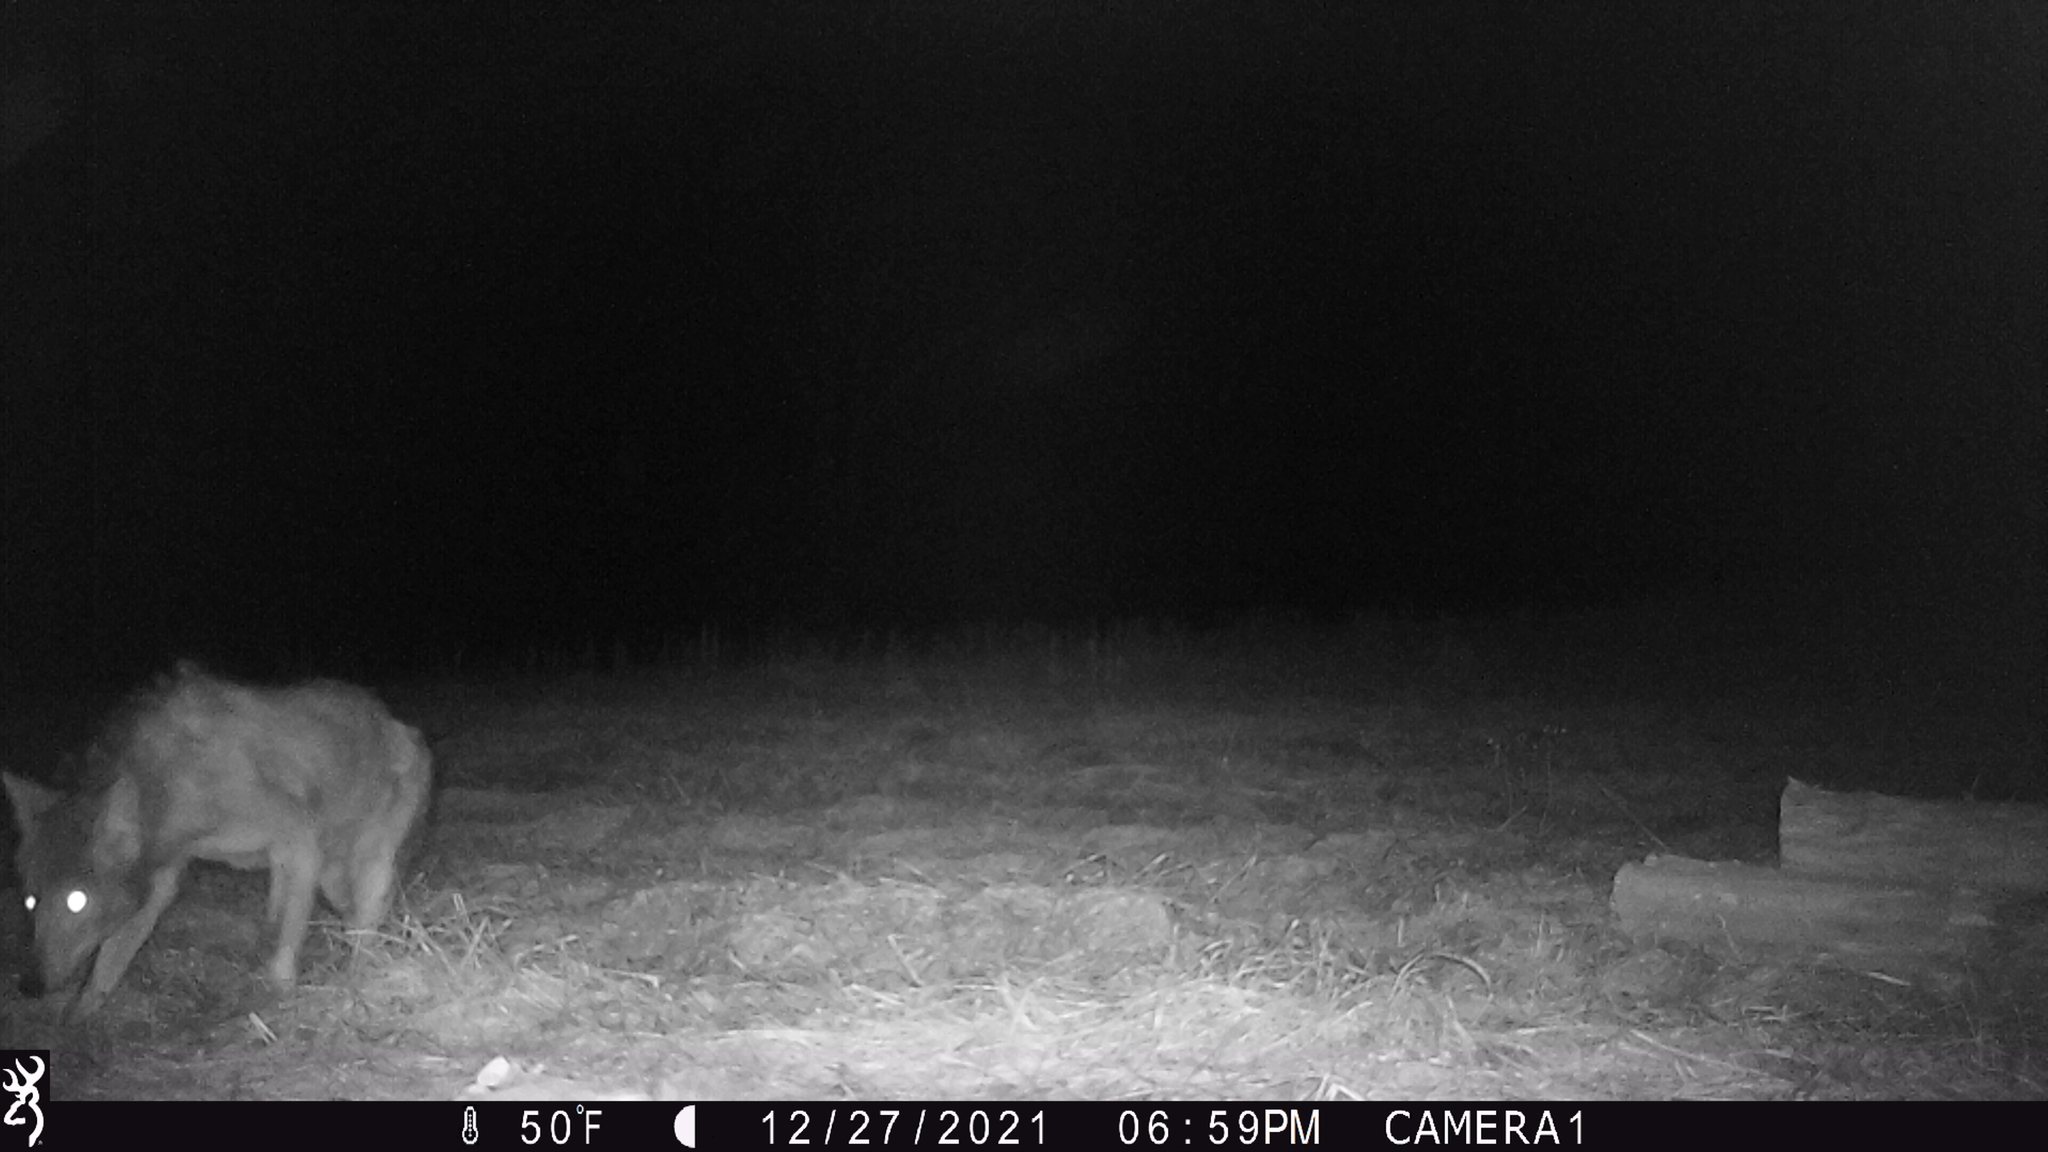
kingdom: Animalia
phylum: Chordata
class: Mammalia
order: Carnivora
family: Canidae
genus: Canis
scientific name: Canis latrans
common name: Coyote
